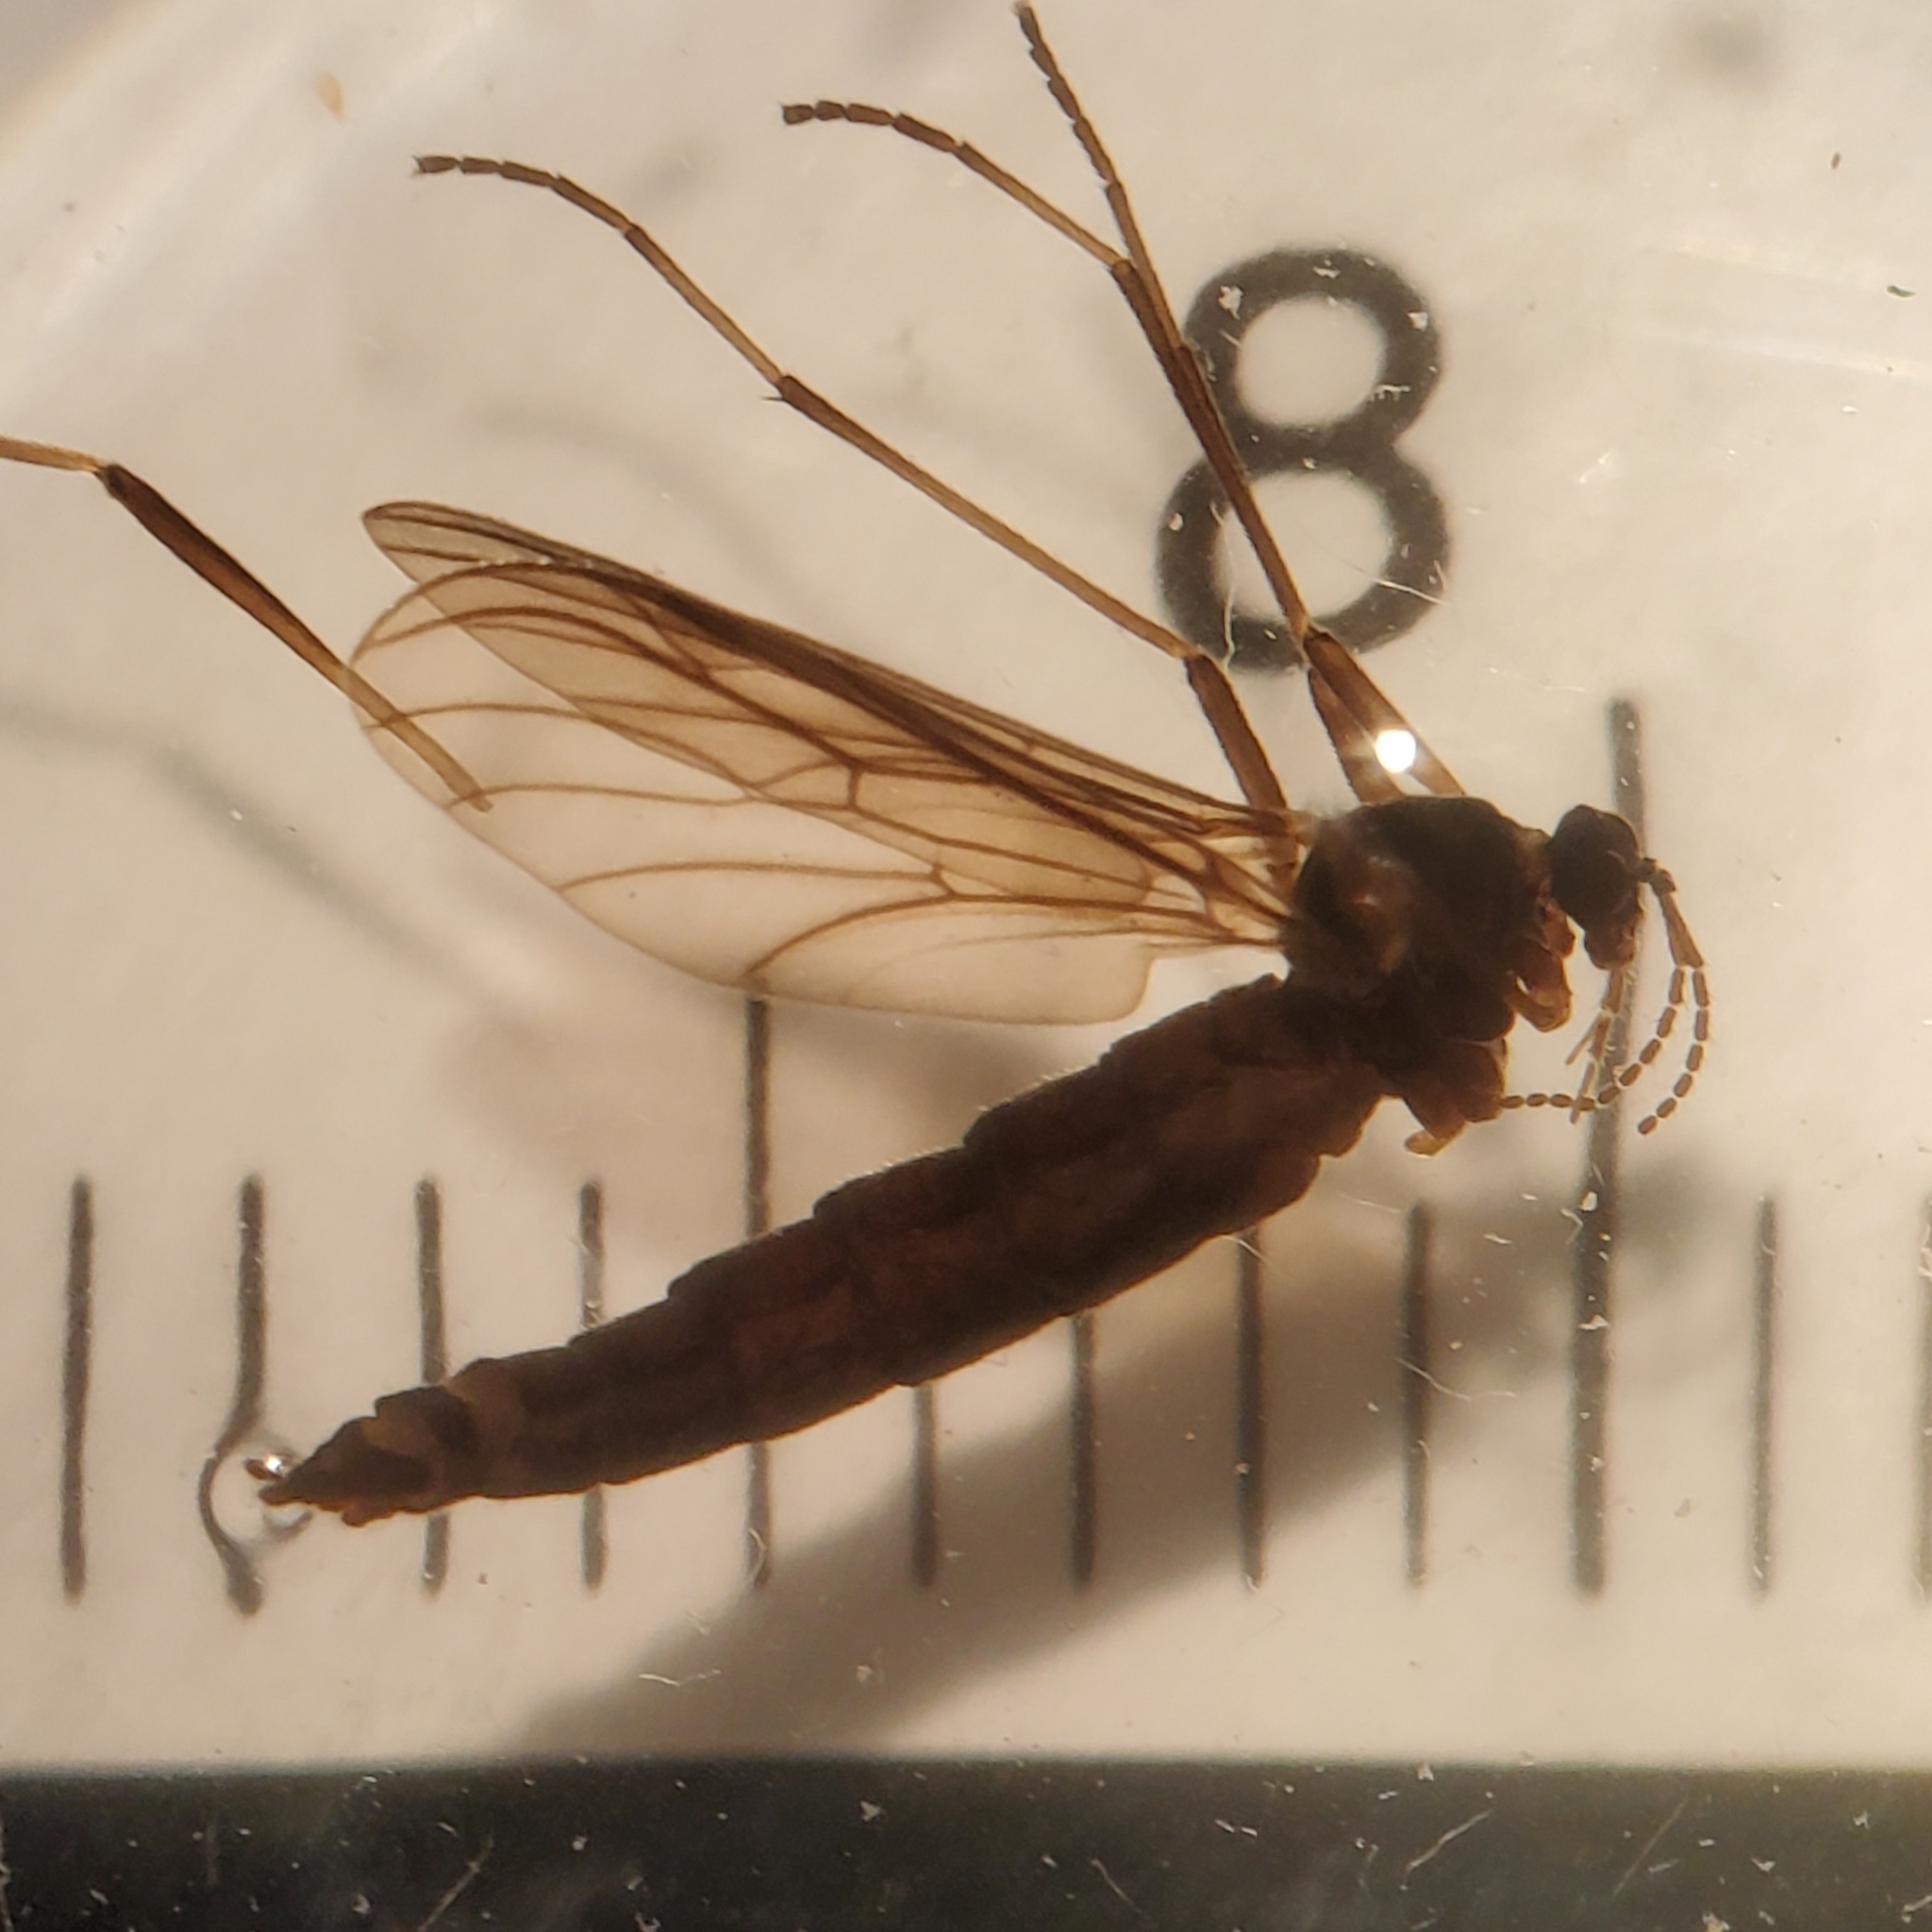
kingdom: Animalia
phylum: Arthropoda
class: Insecta
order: Diptera
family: Hesperinidae
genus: Hesperinus
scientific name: Hesperinus brevifrons
